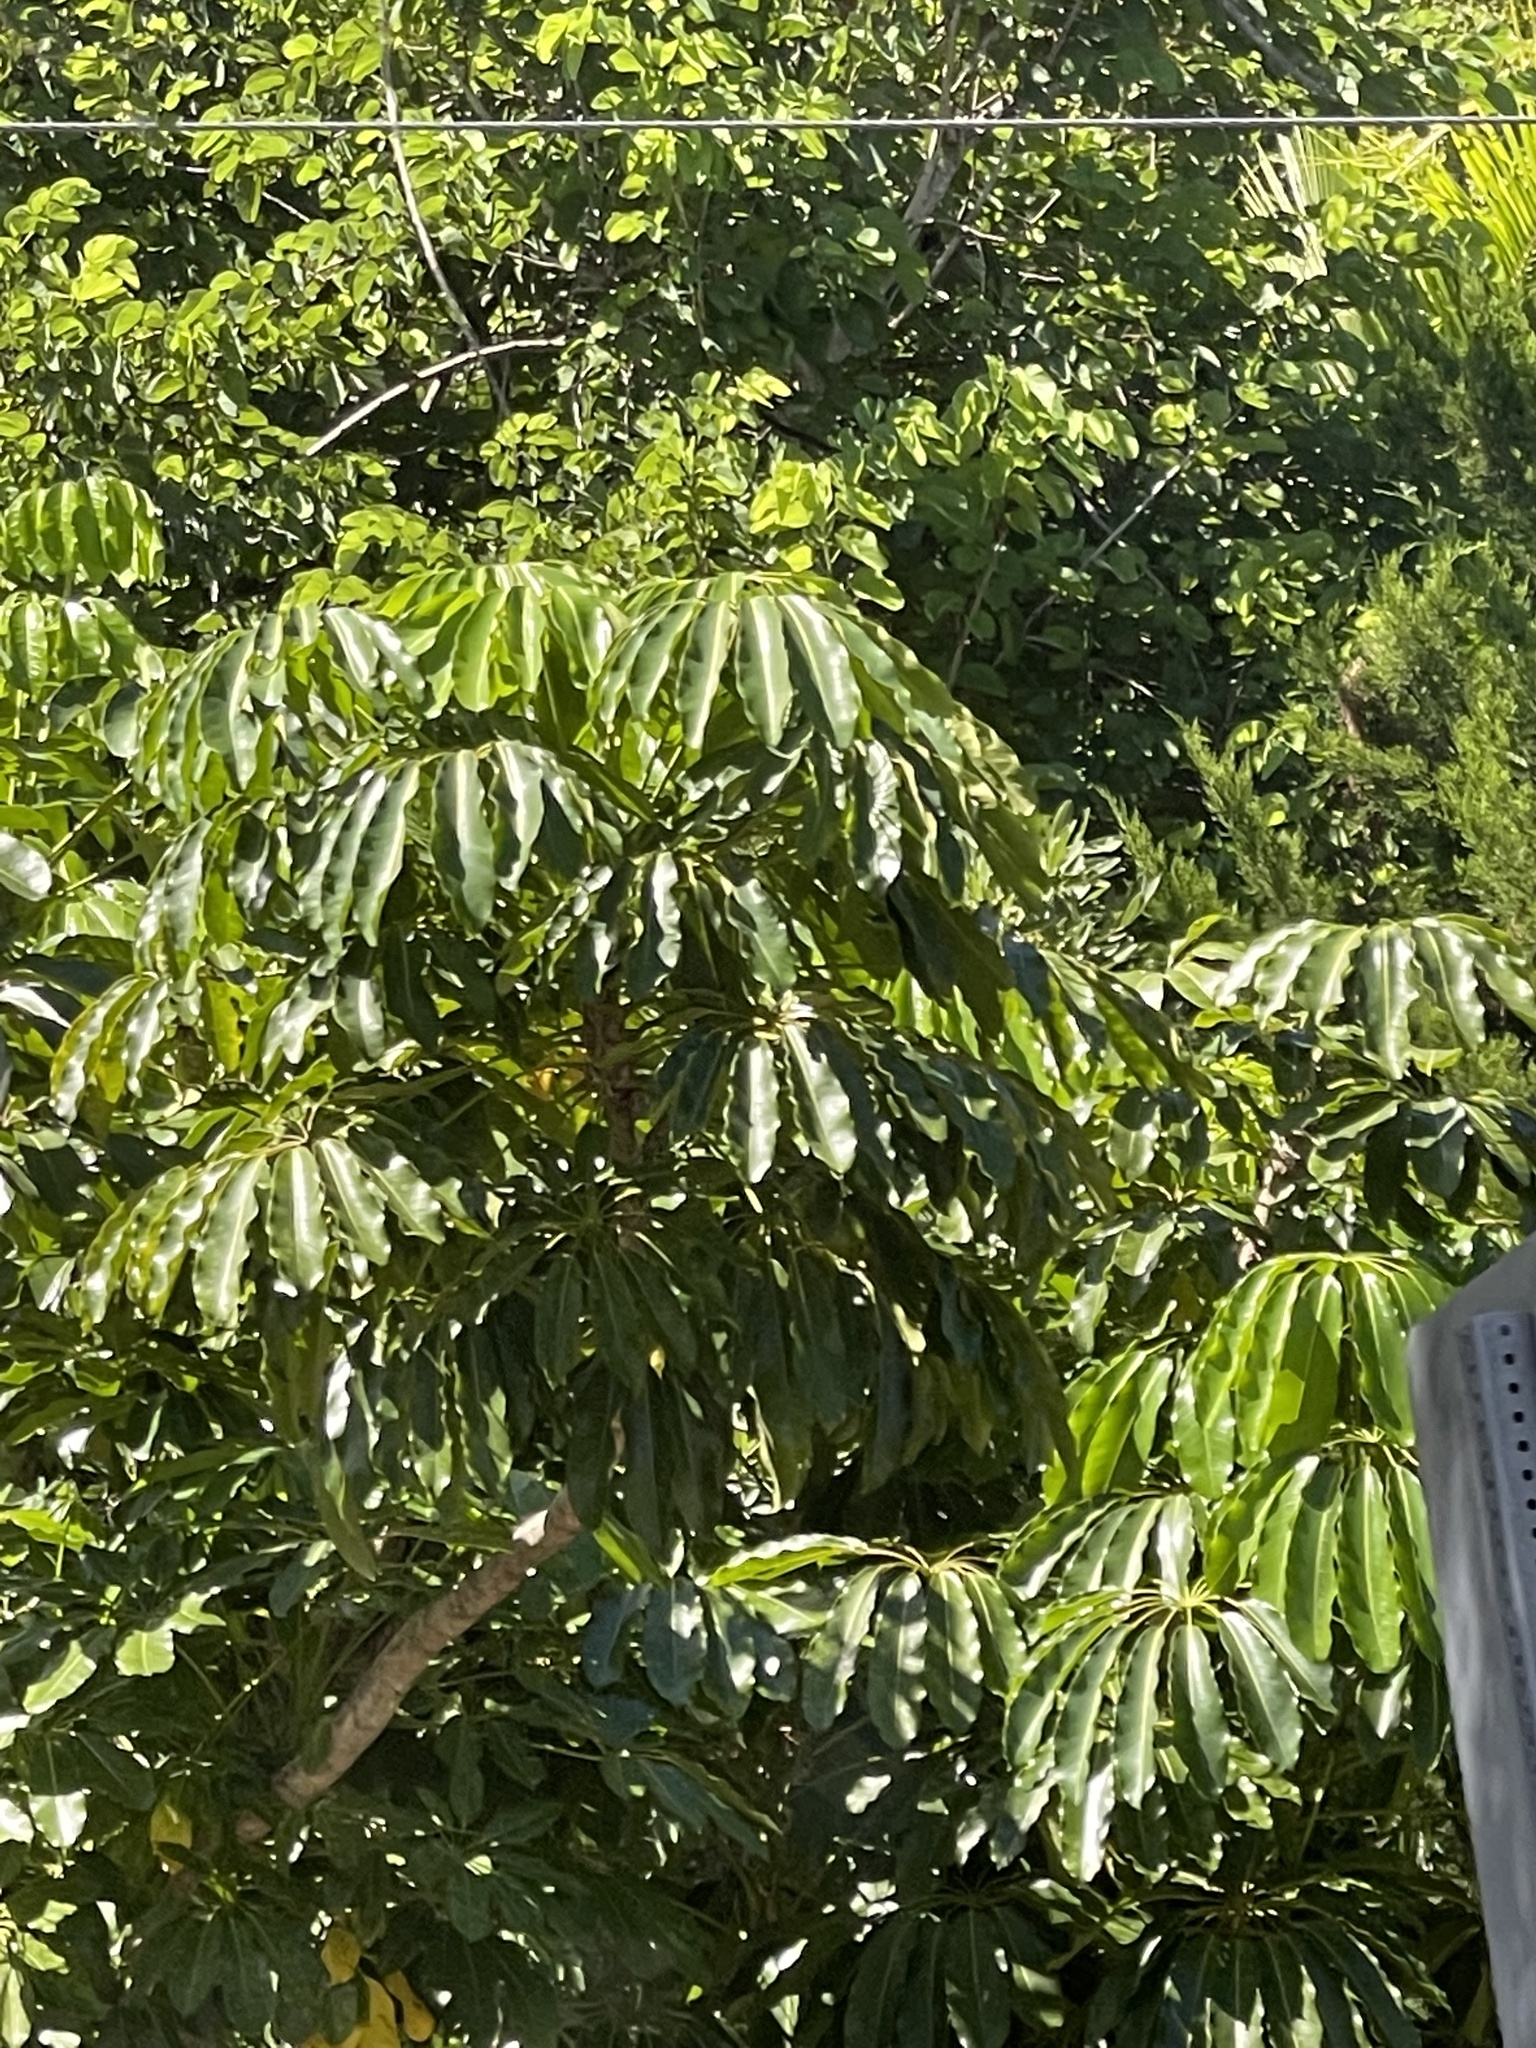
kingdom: Plantae
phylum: Tracheophyta
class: Magnoliopsida
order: Apiales
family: Araliaceae
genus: Heptapleurum
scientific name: Heptapleurum actinophyllum
